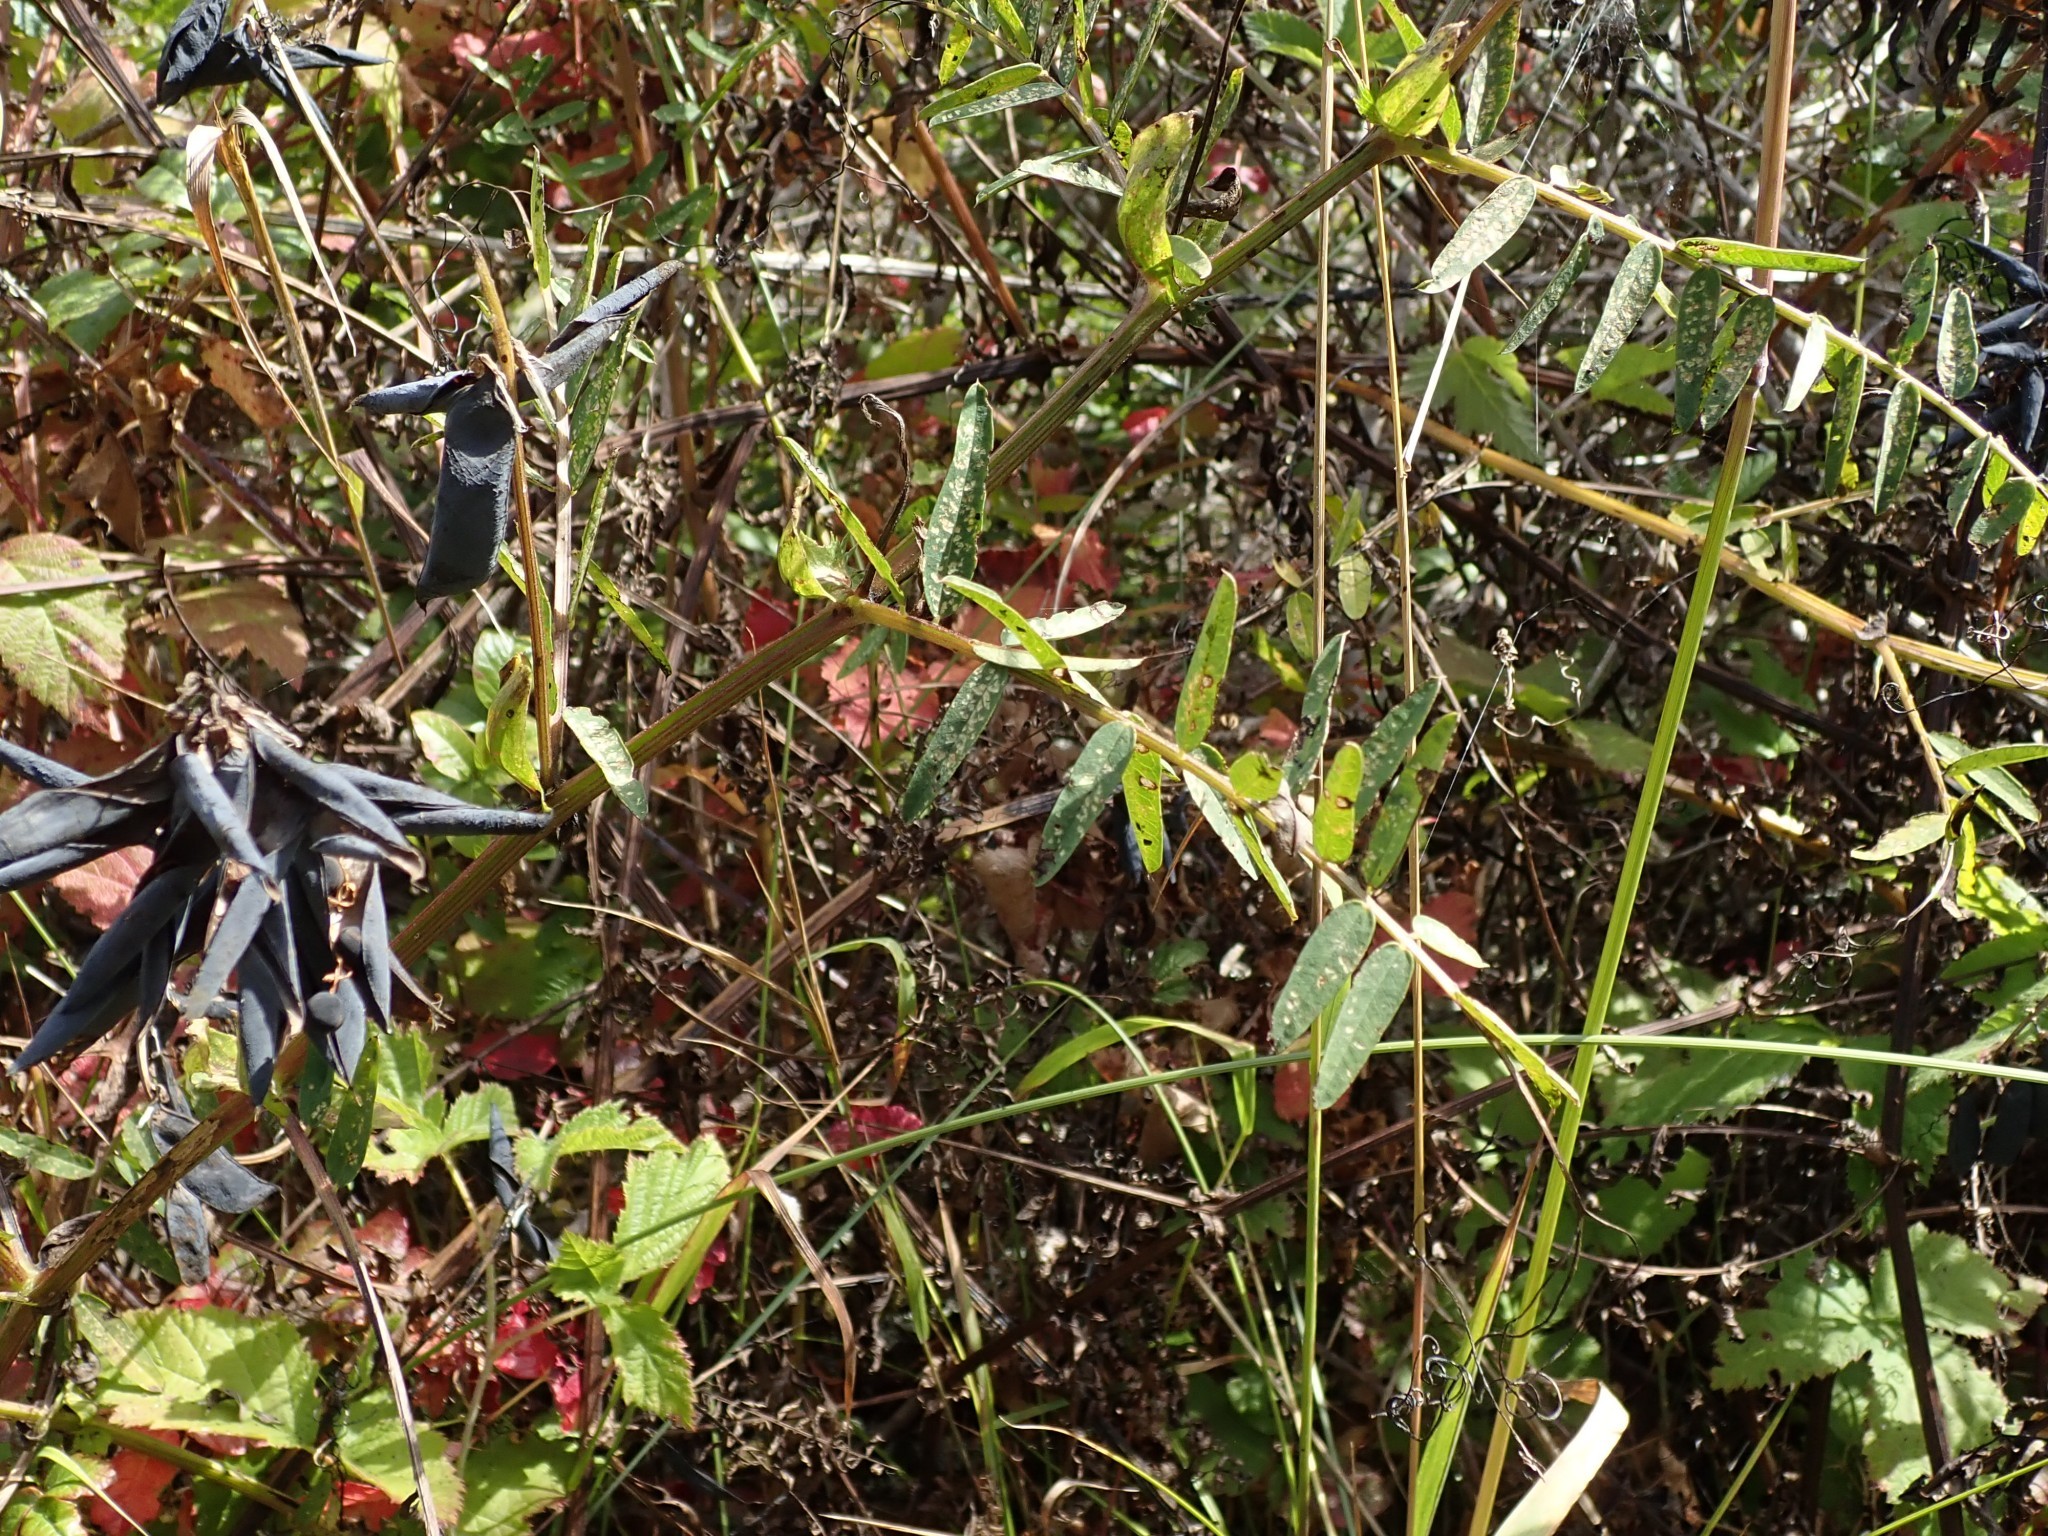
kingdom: Plantae
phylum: Tracheophyta
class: Magnoliopsida
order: Fabales
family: Fabaceae
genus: Vicia
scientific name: Vicia
